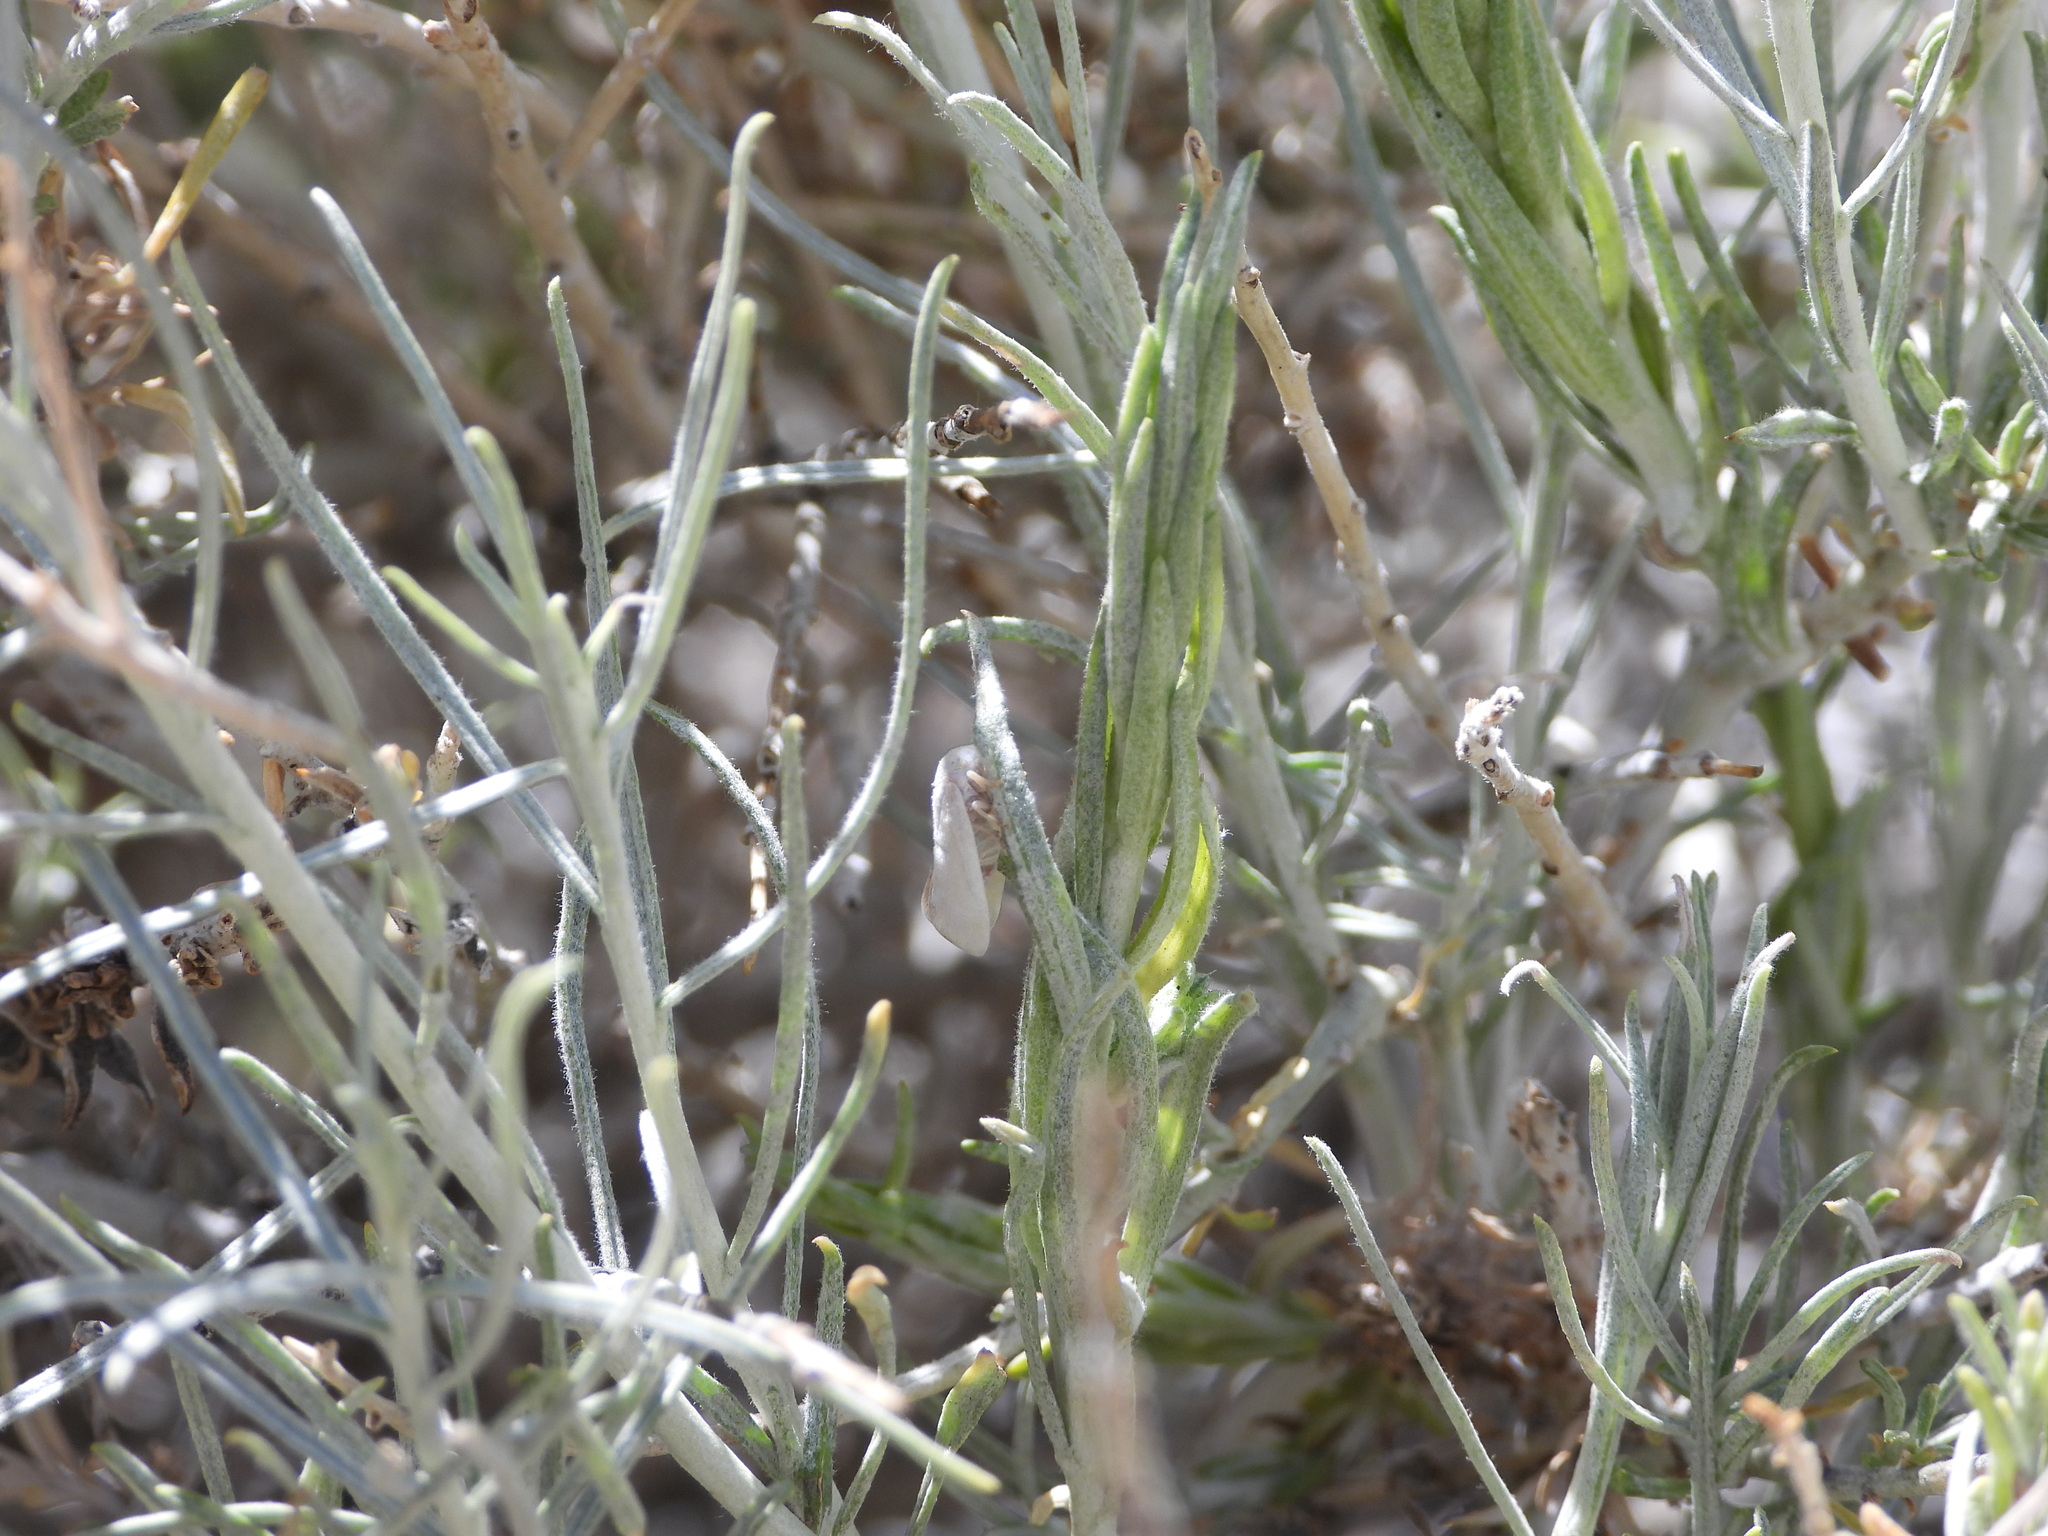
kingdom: Animalia
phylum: Arthropoda
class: Insecta
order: Hemiptera
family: Flatidae
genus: Flatormenis
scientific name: Flatormenis saucia
